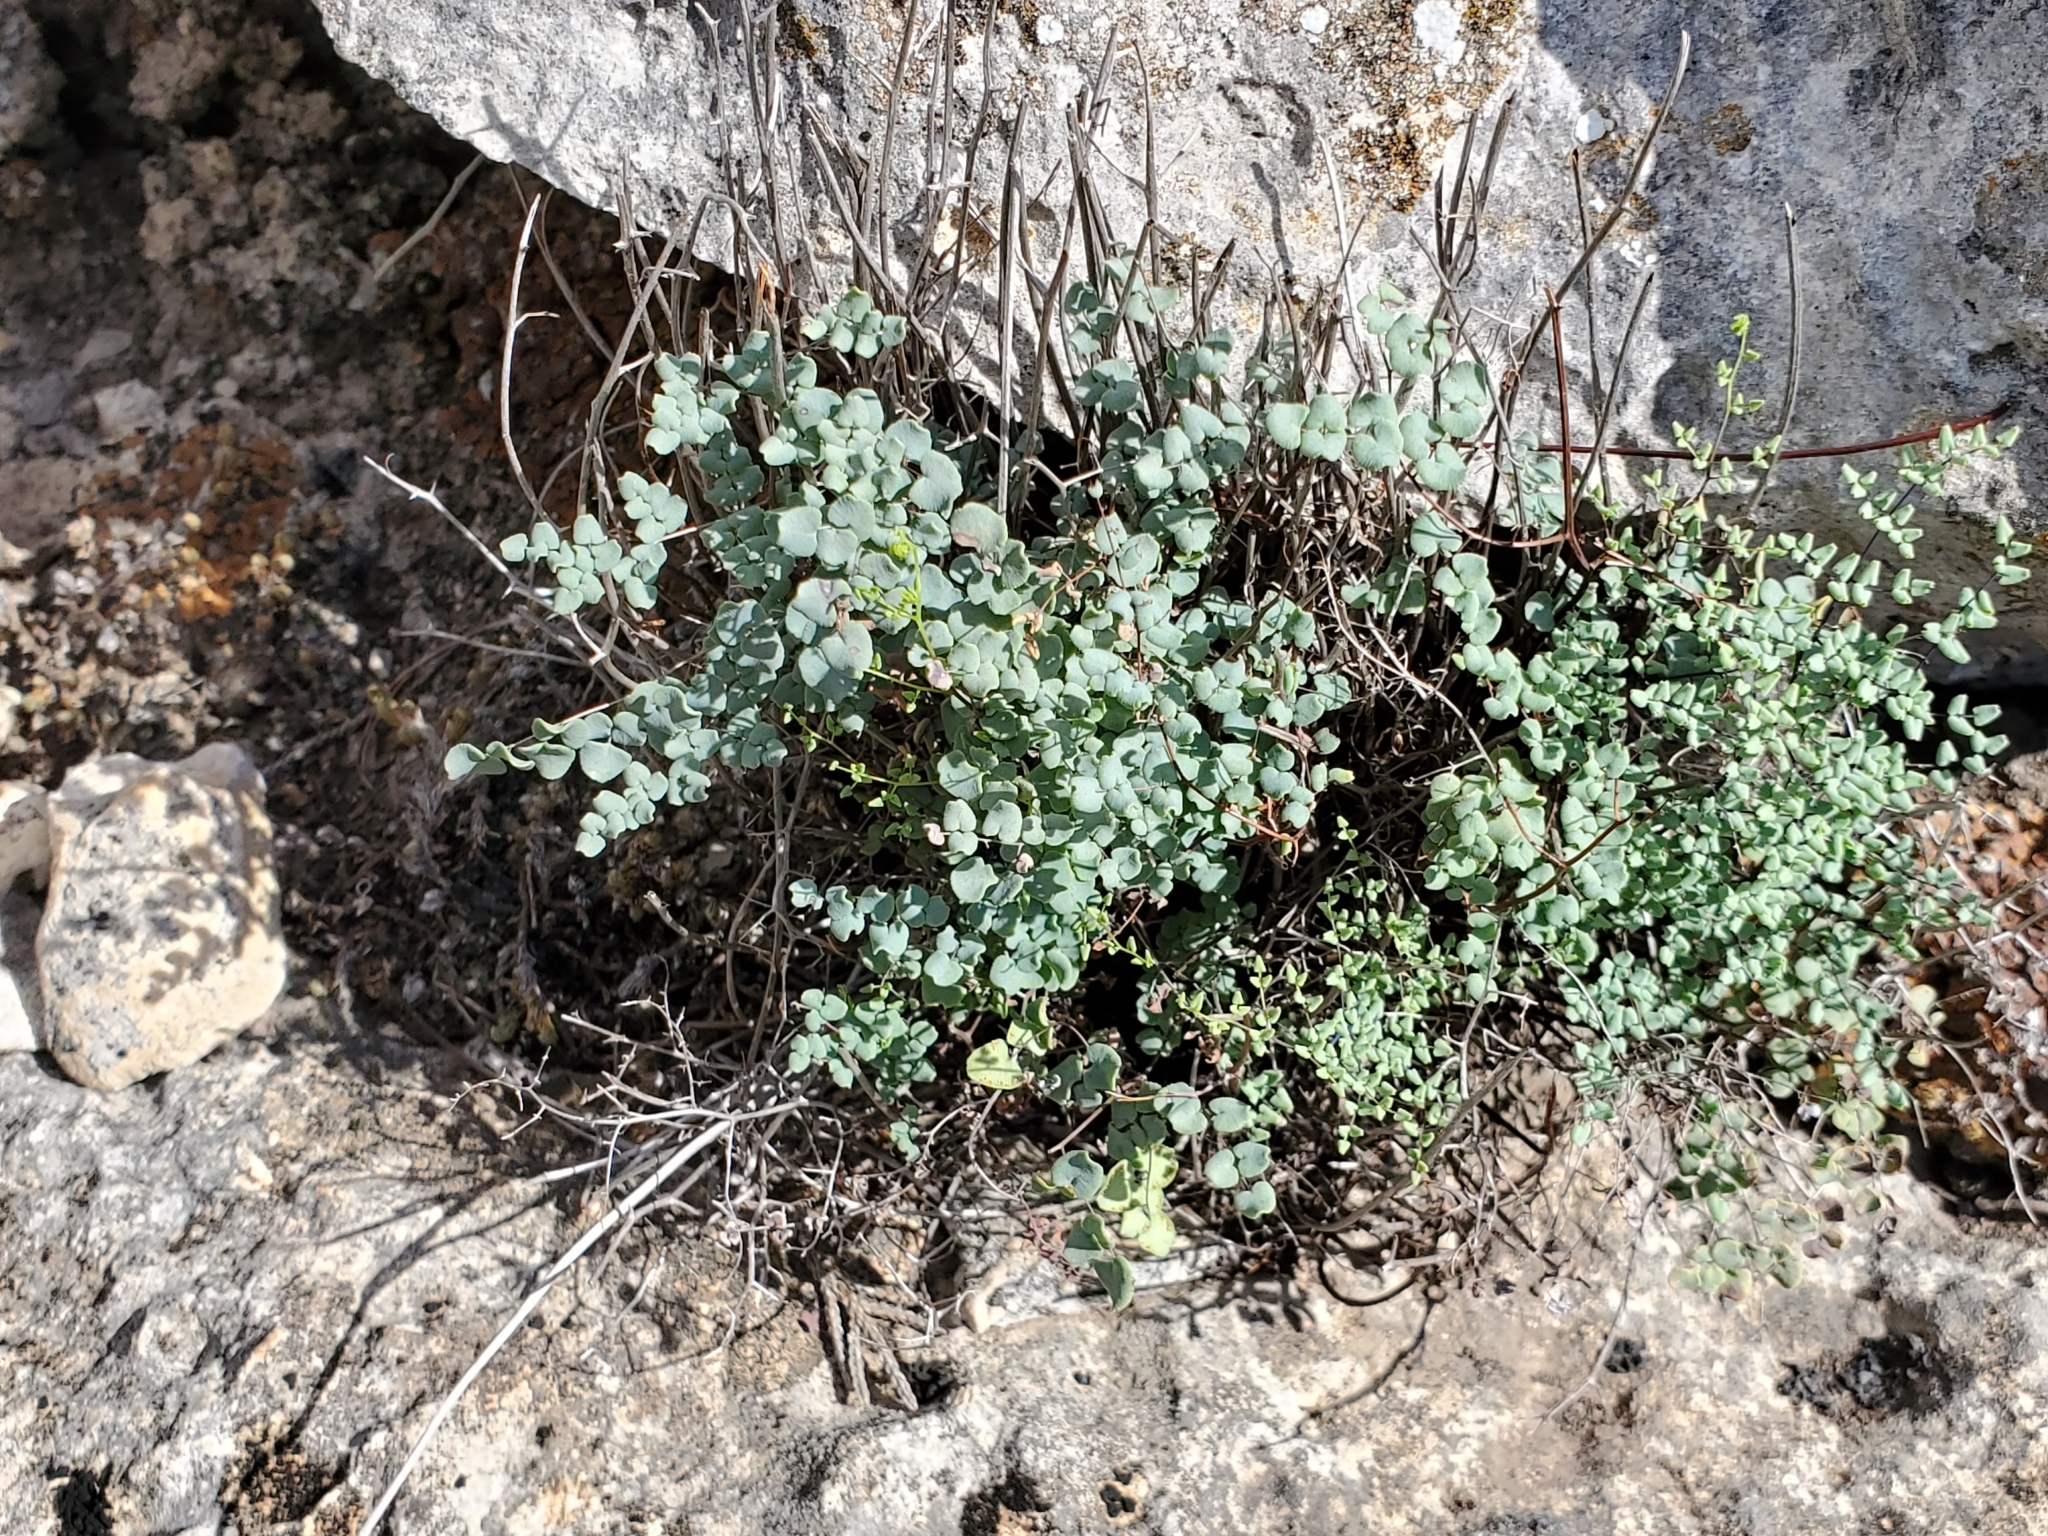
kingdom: Plantae
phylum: Tracheophyta
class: Polypodiopsida
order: Polypodiales
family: Pteridaceae
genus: Argyrochosma
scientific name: Argyrochosma microphylla
